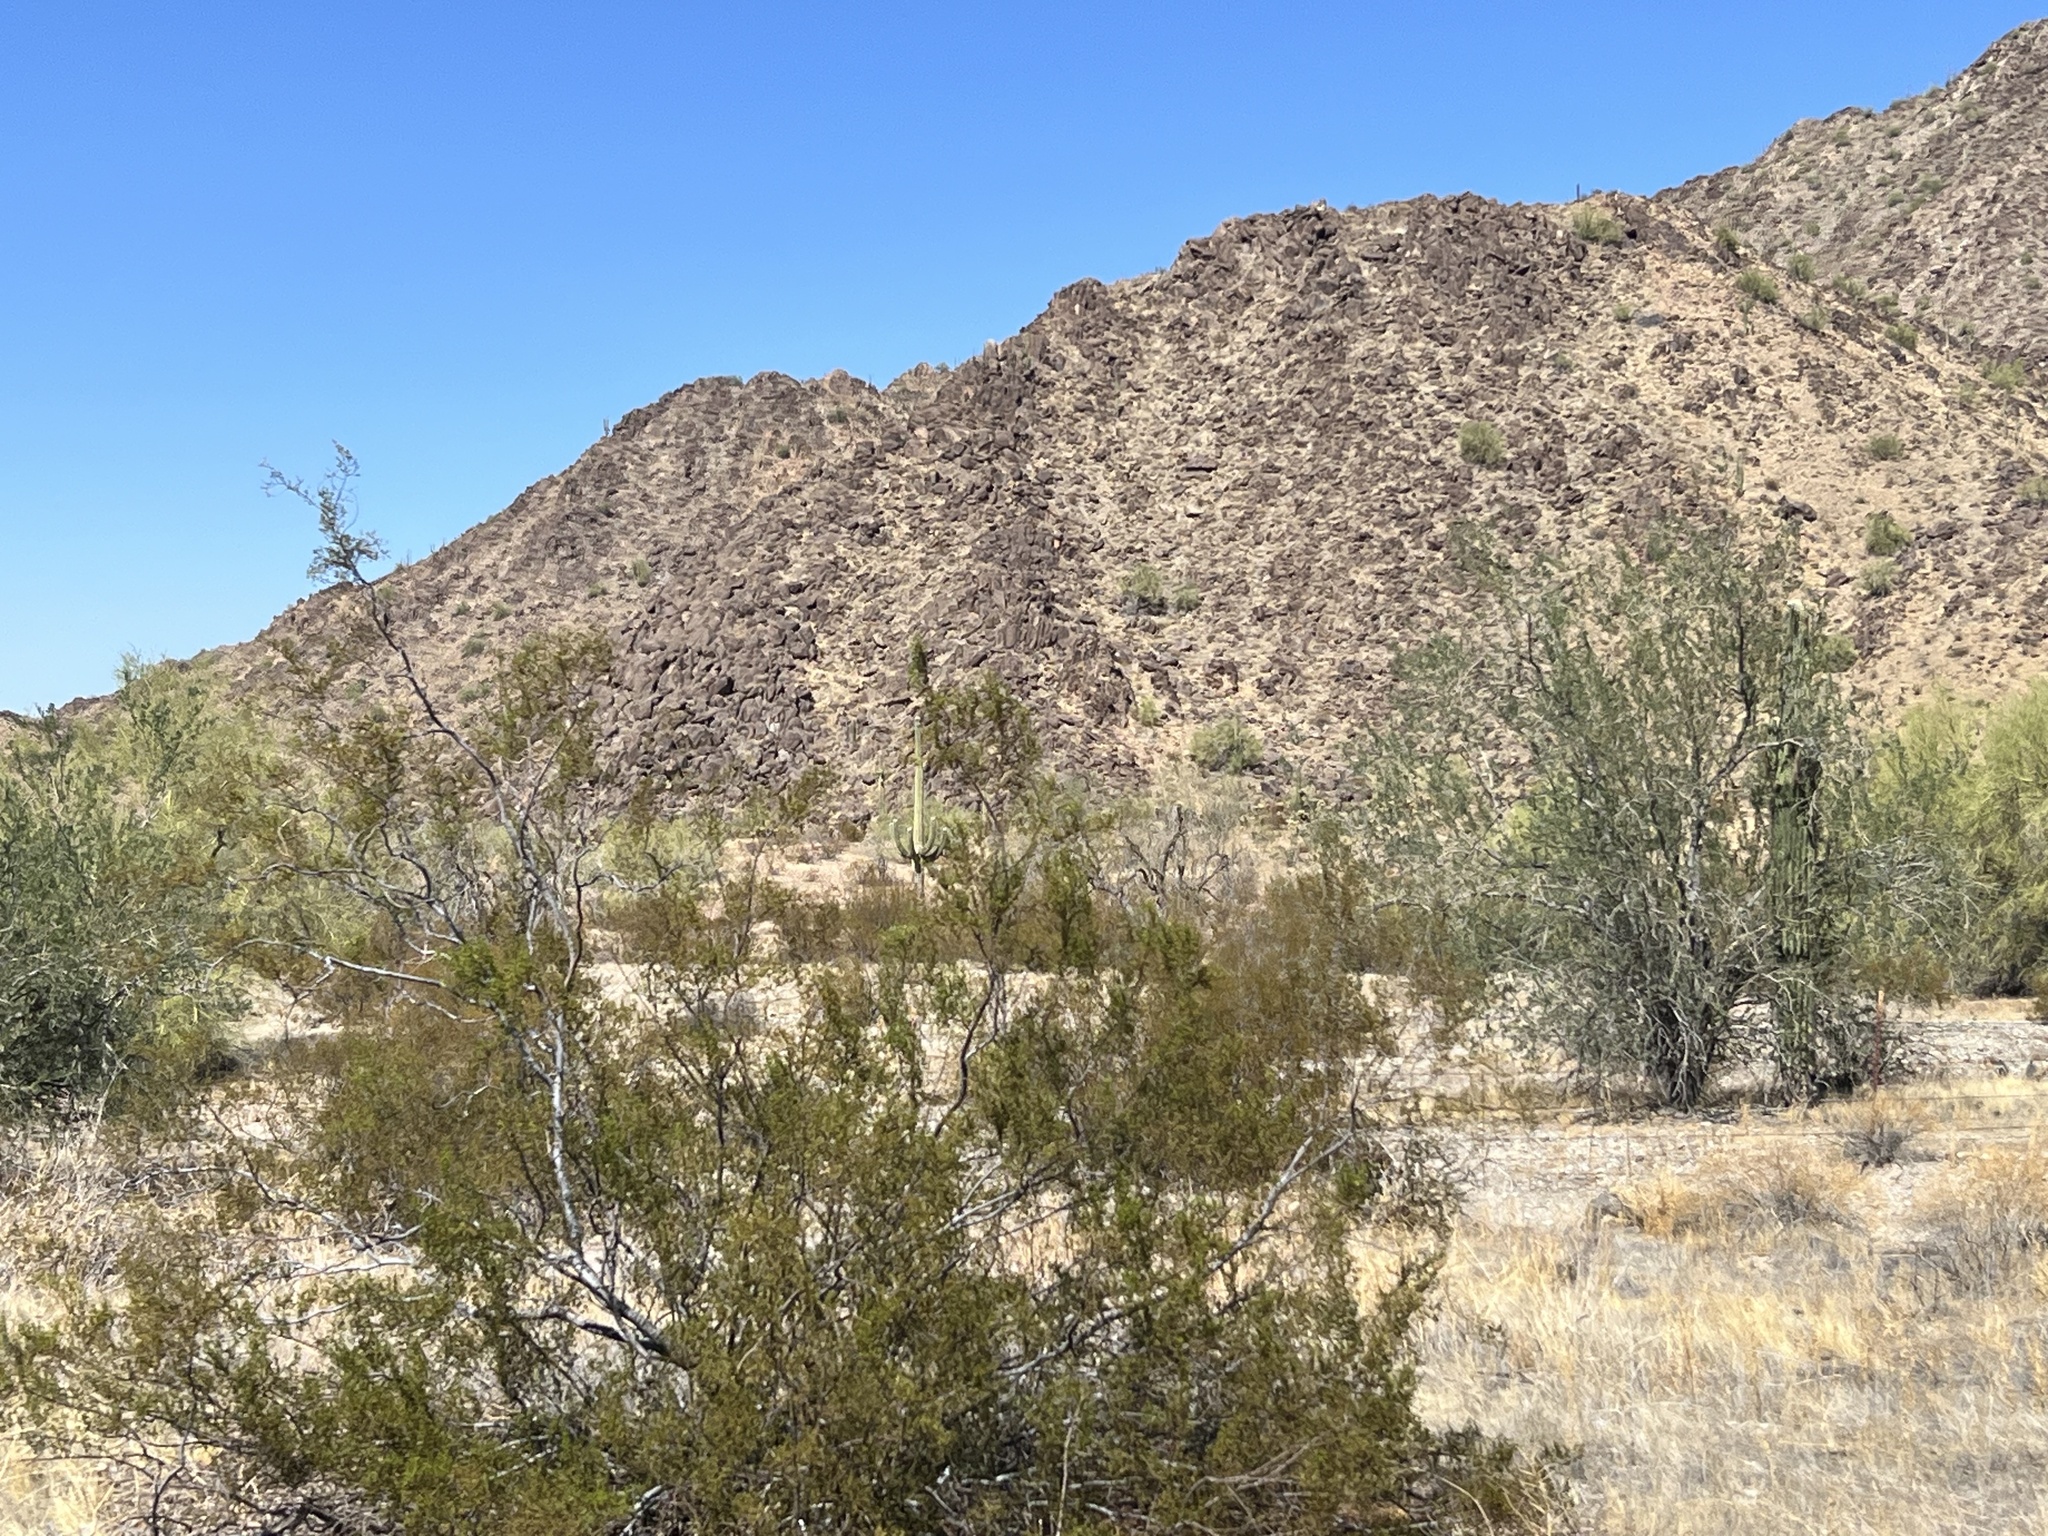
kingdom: Plantae
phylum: Tracheophyta
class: Magnoliopsida
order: Zygophyllales
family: Zygophyllaceae
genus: Larrea
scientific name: Larrea tridentata
